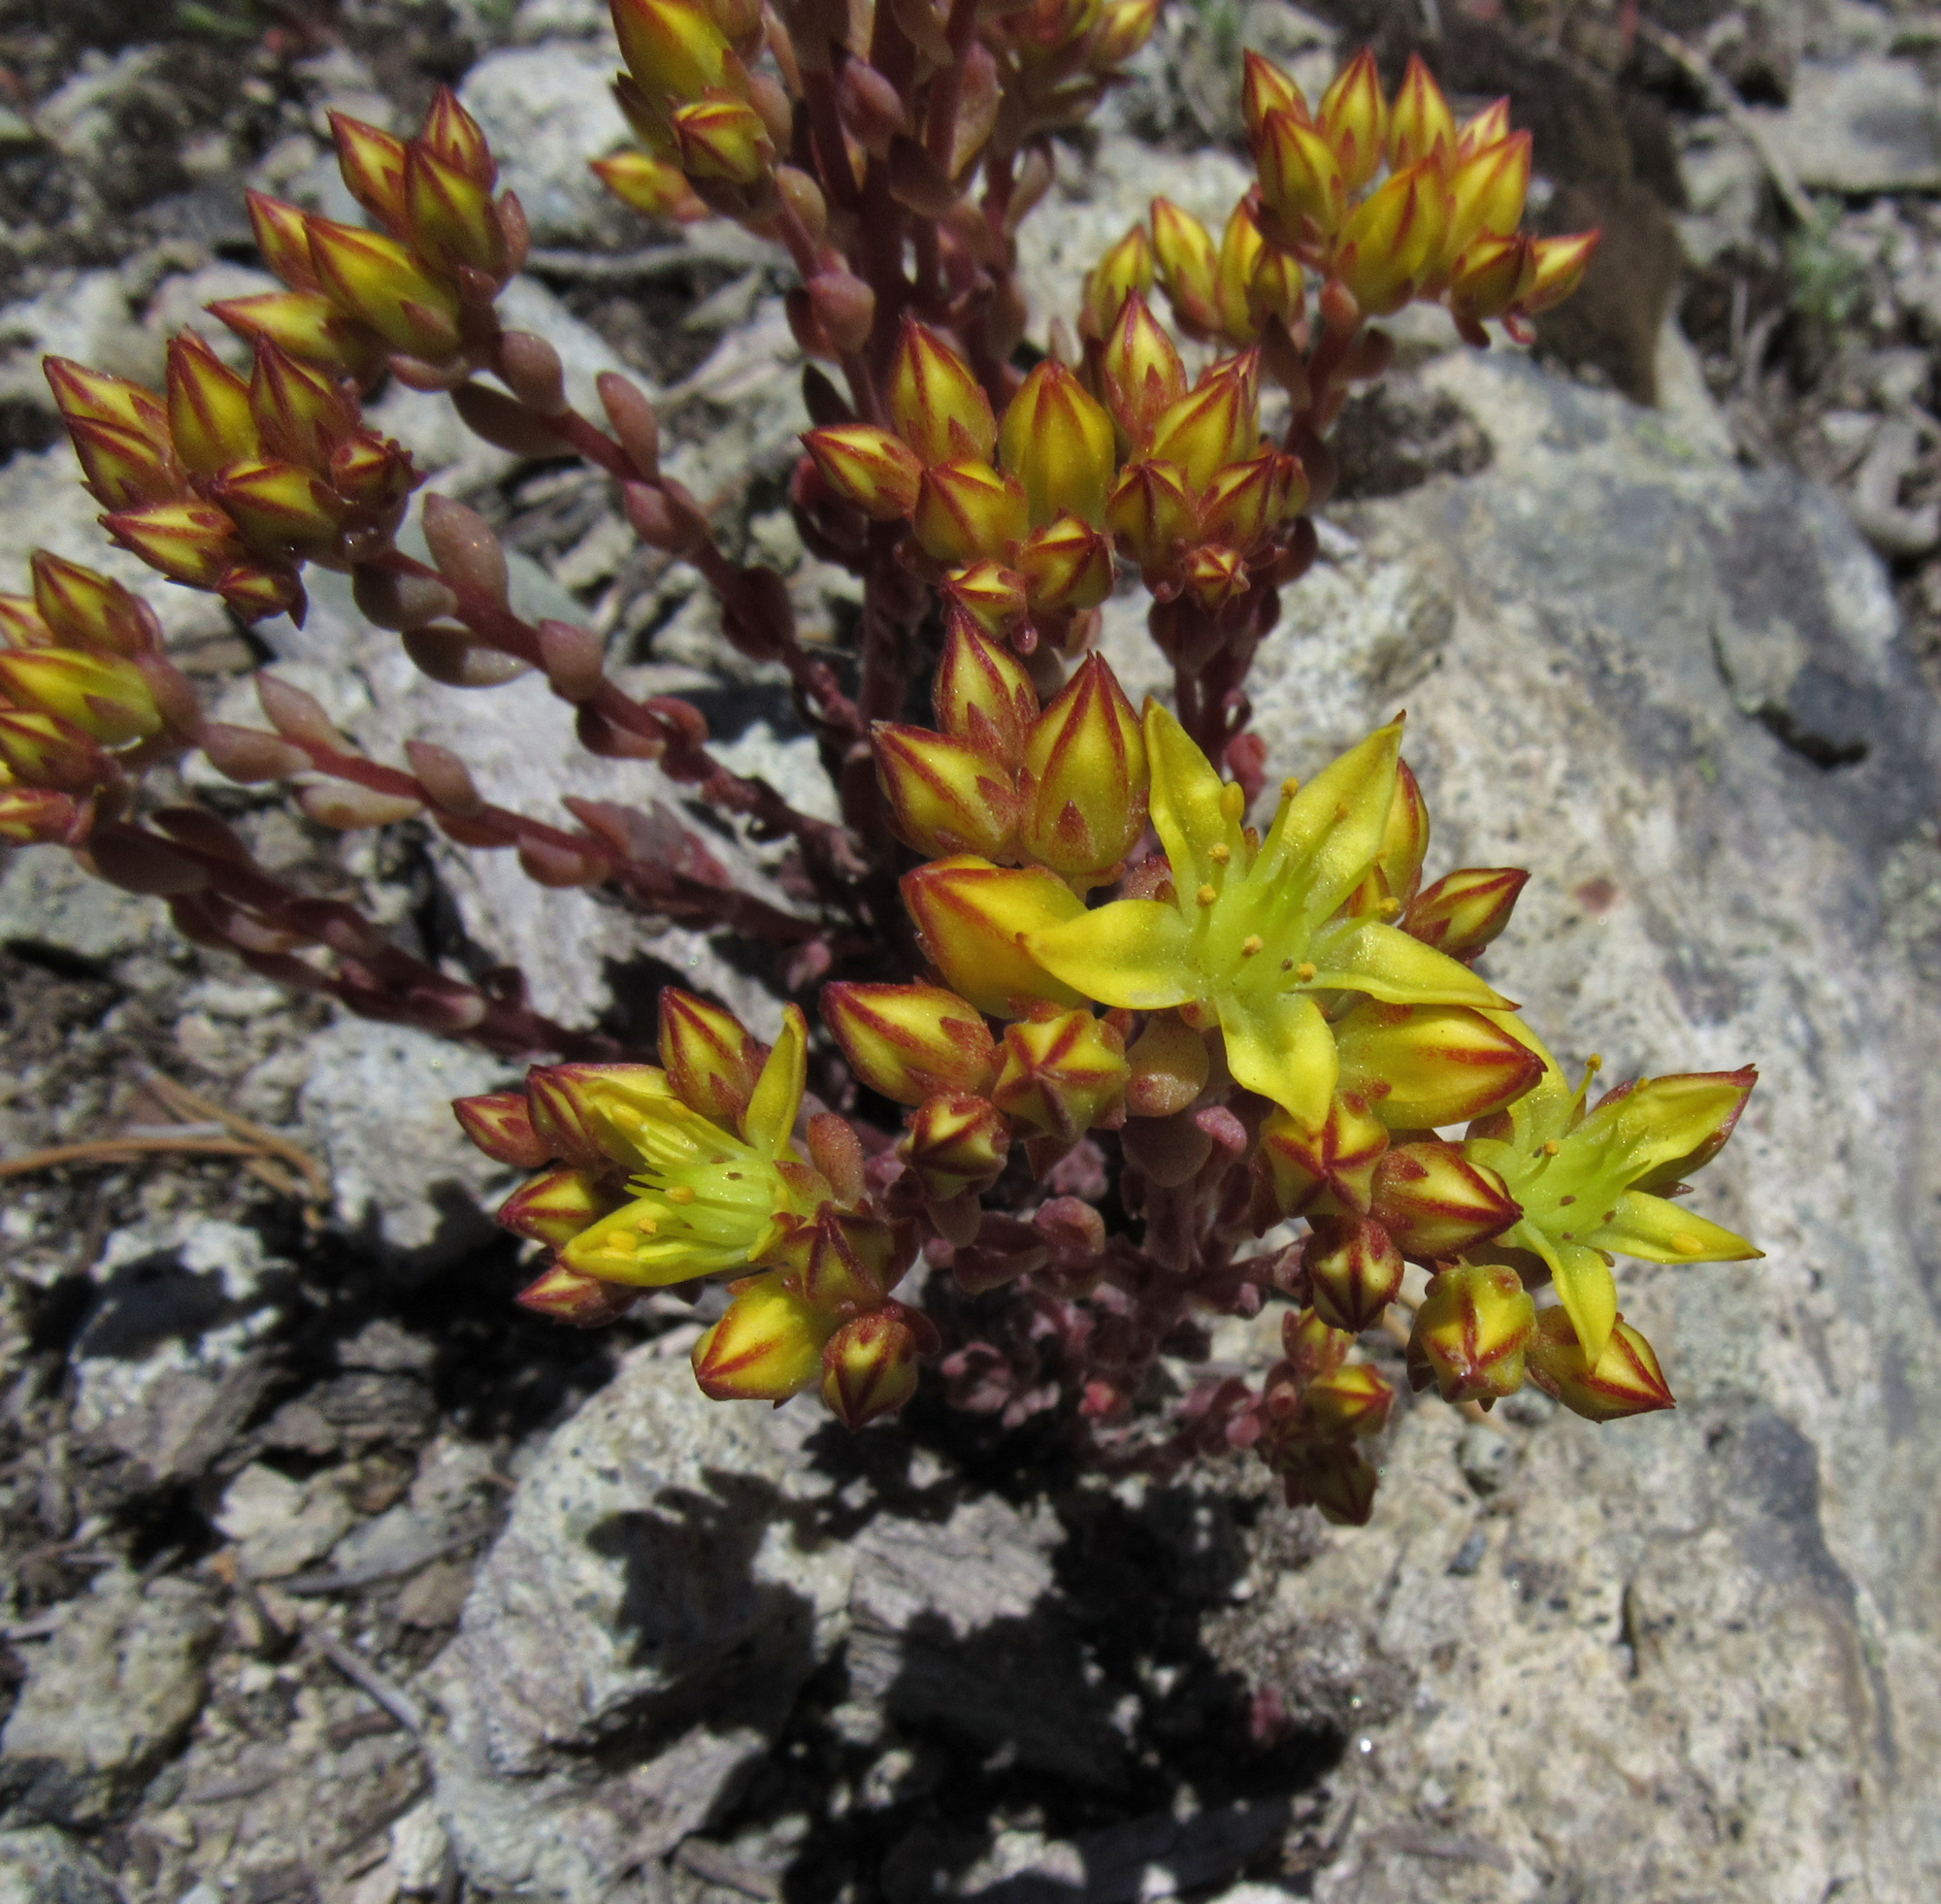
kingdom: Plantae
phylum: Tracheophyta
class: Magnoliopsida
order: Saxifragales
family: Crassulaceae
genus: Sedum
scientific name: Sedum lanceolatum
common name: Common stonecrop
